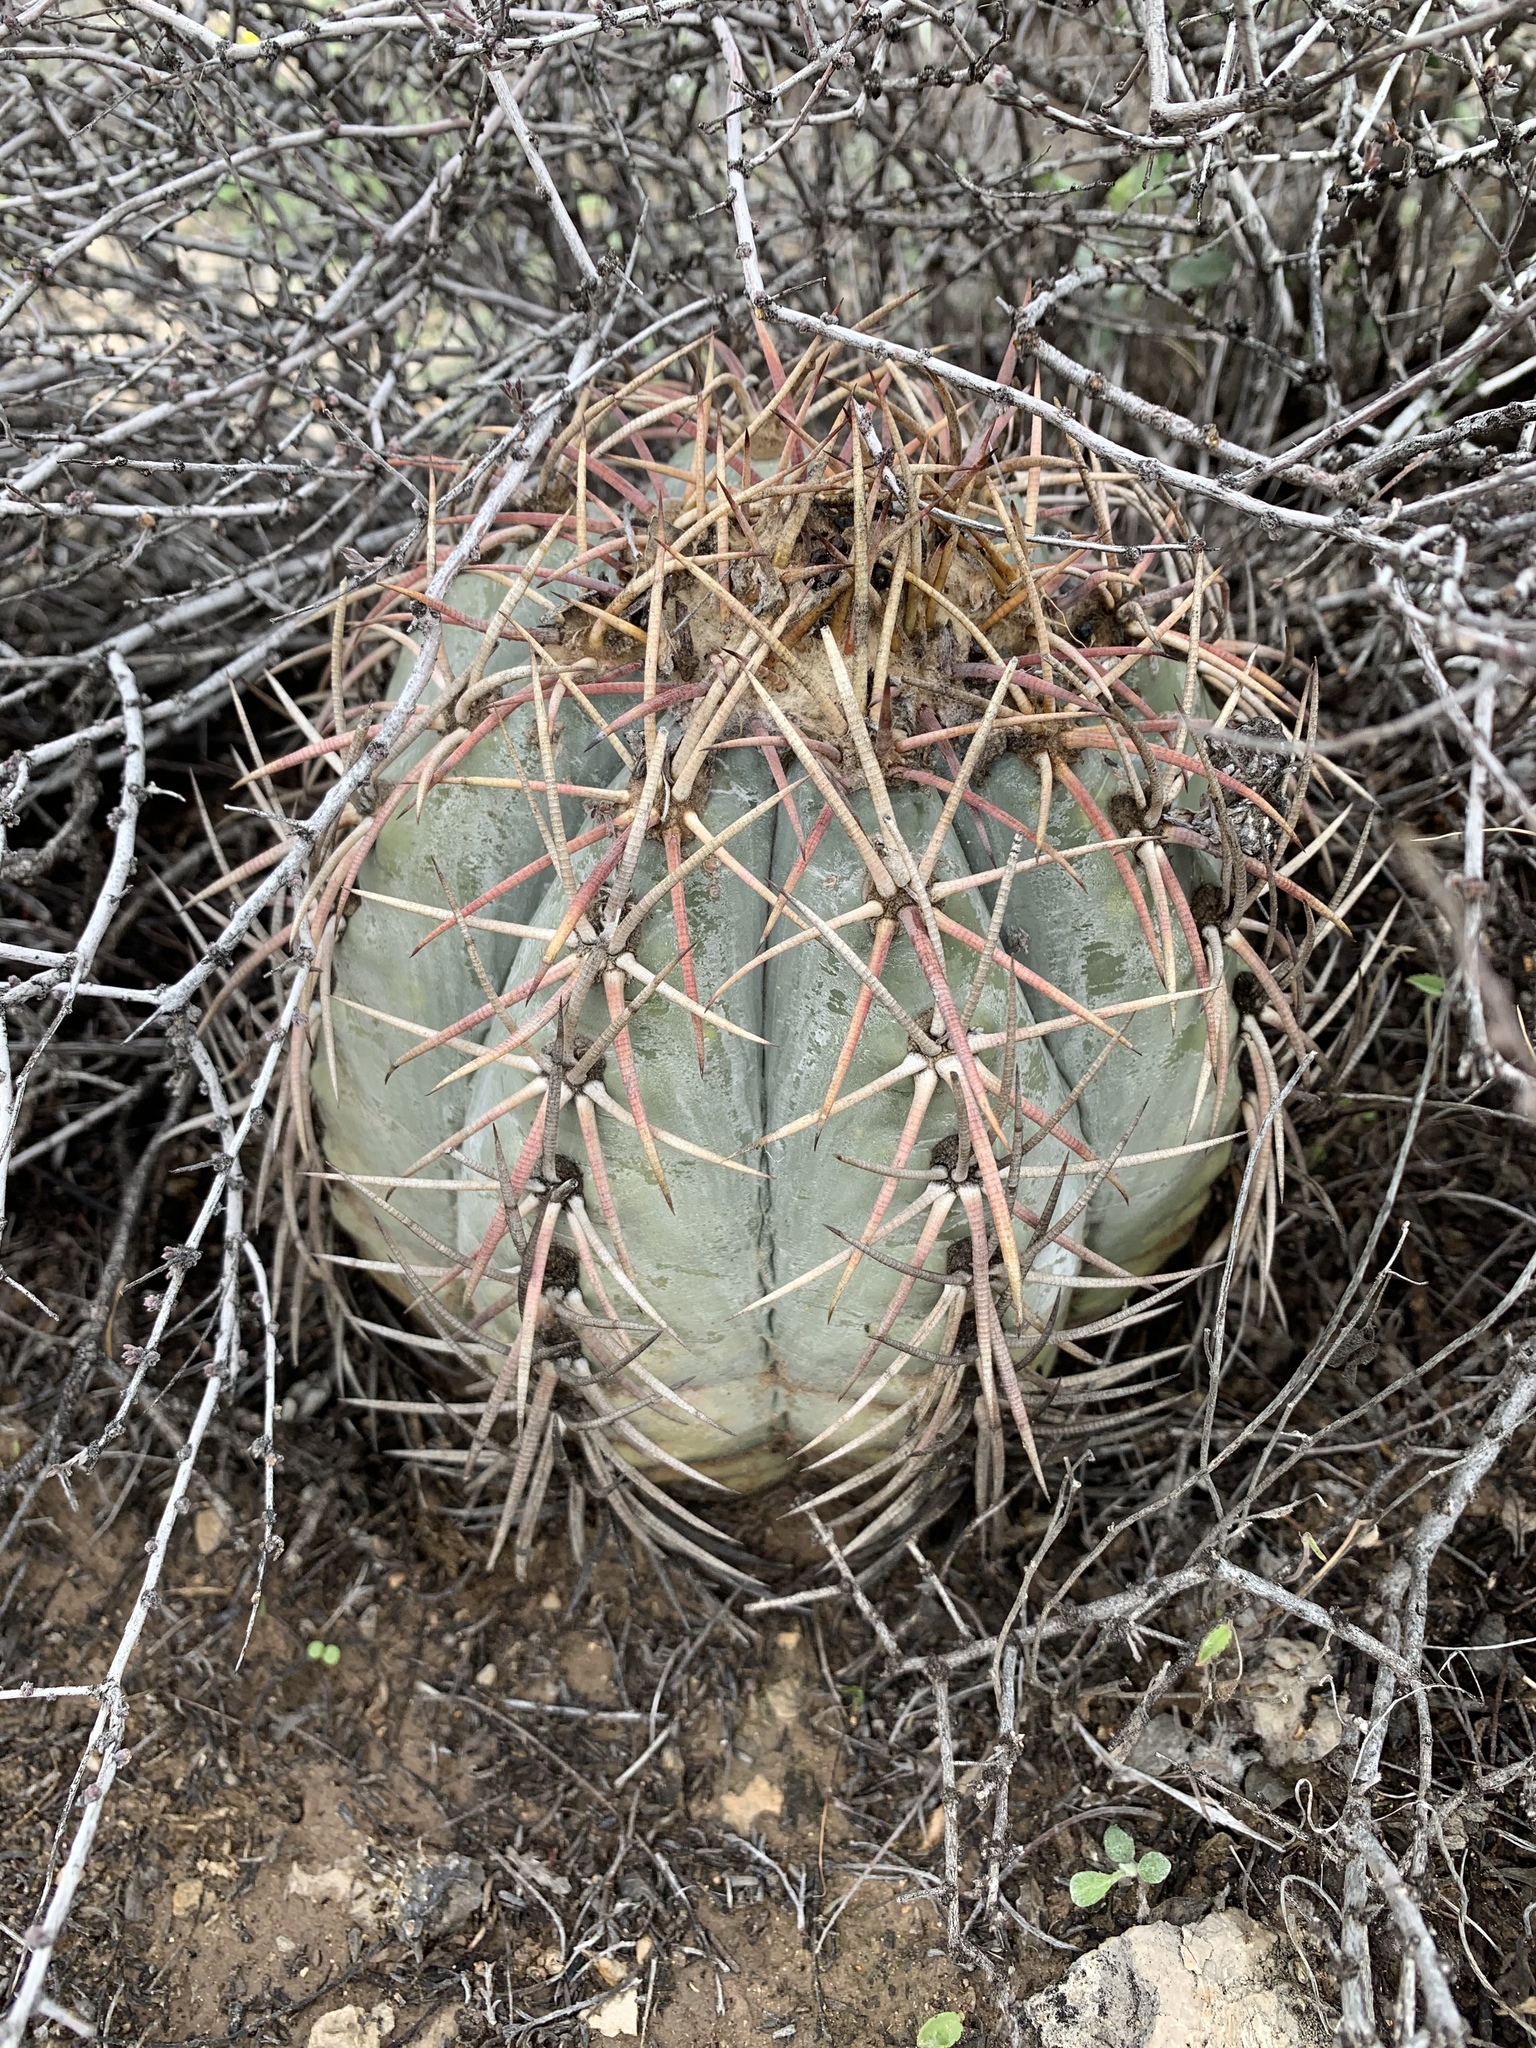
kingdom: Plantae
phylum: Tracheophyta
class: Magnoliopsida
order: Caryophyllales
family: Cactaceae
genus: Echinocactus
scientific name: Echinocactus horizonthalonius
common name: Devilshead
